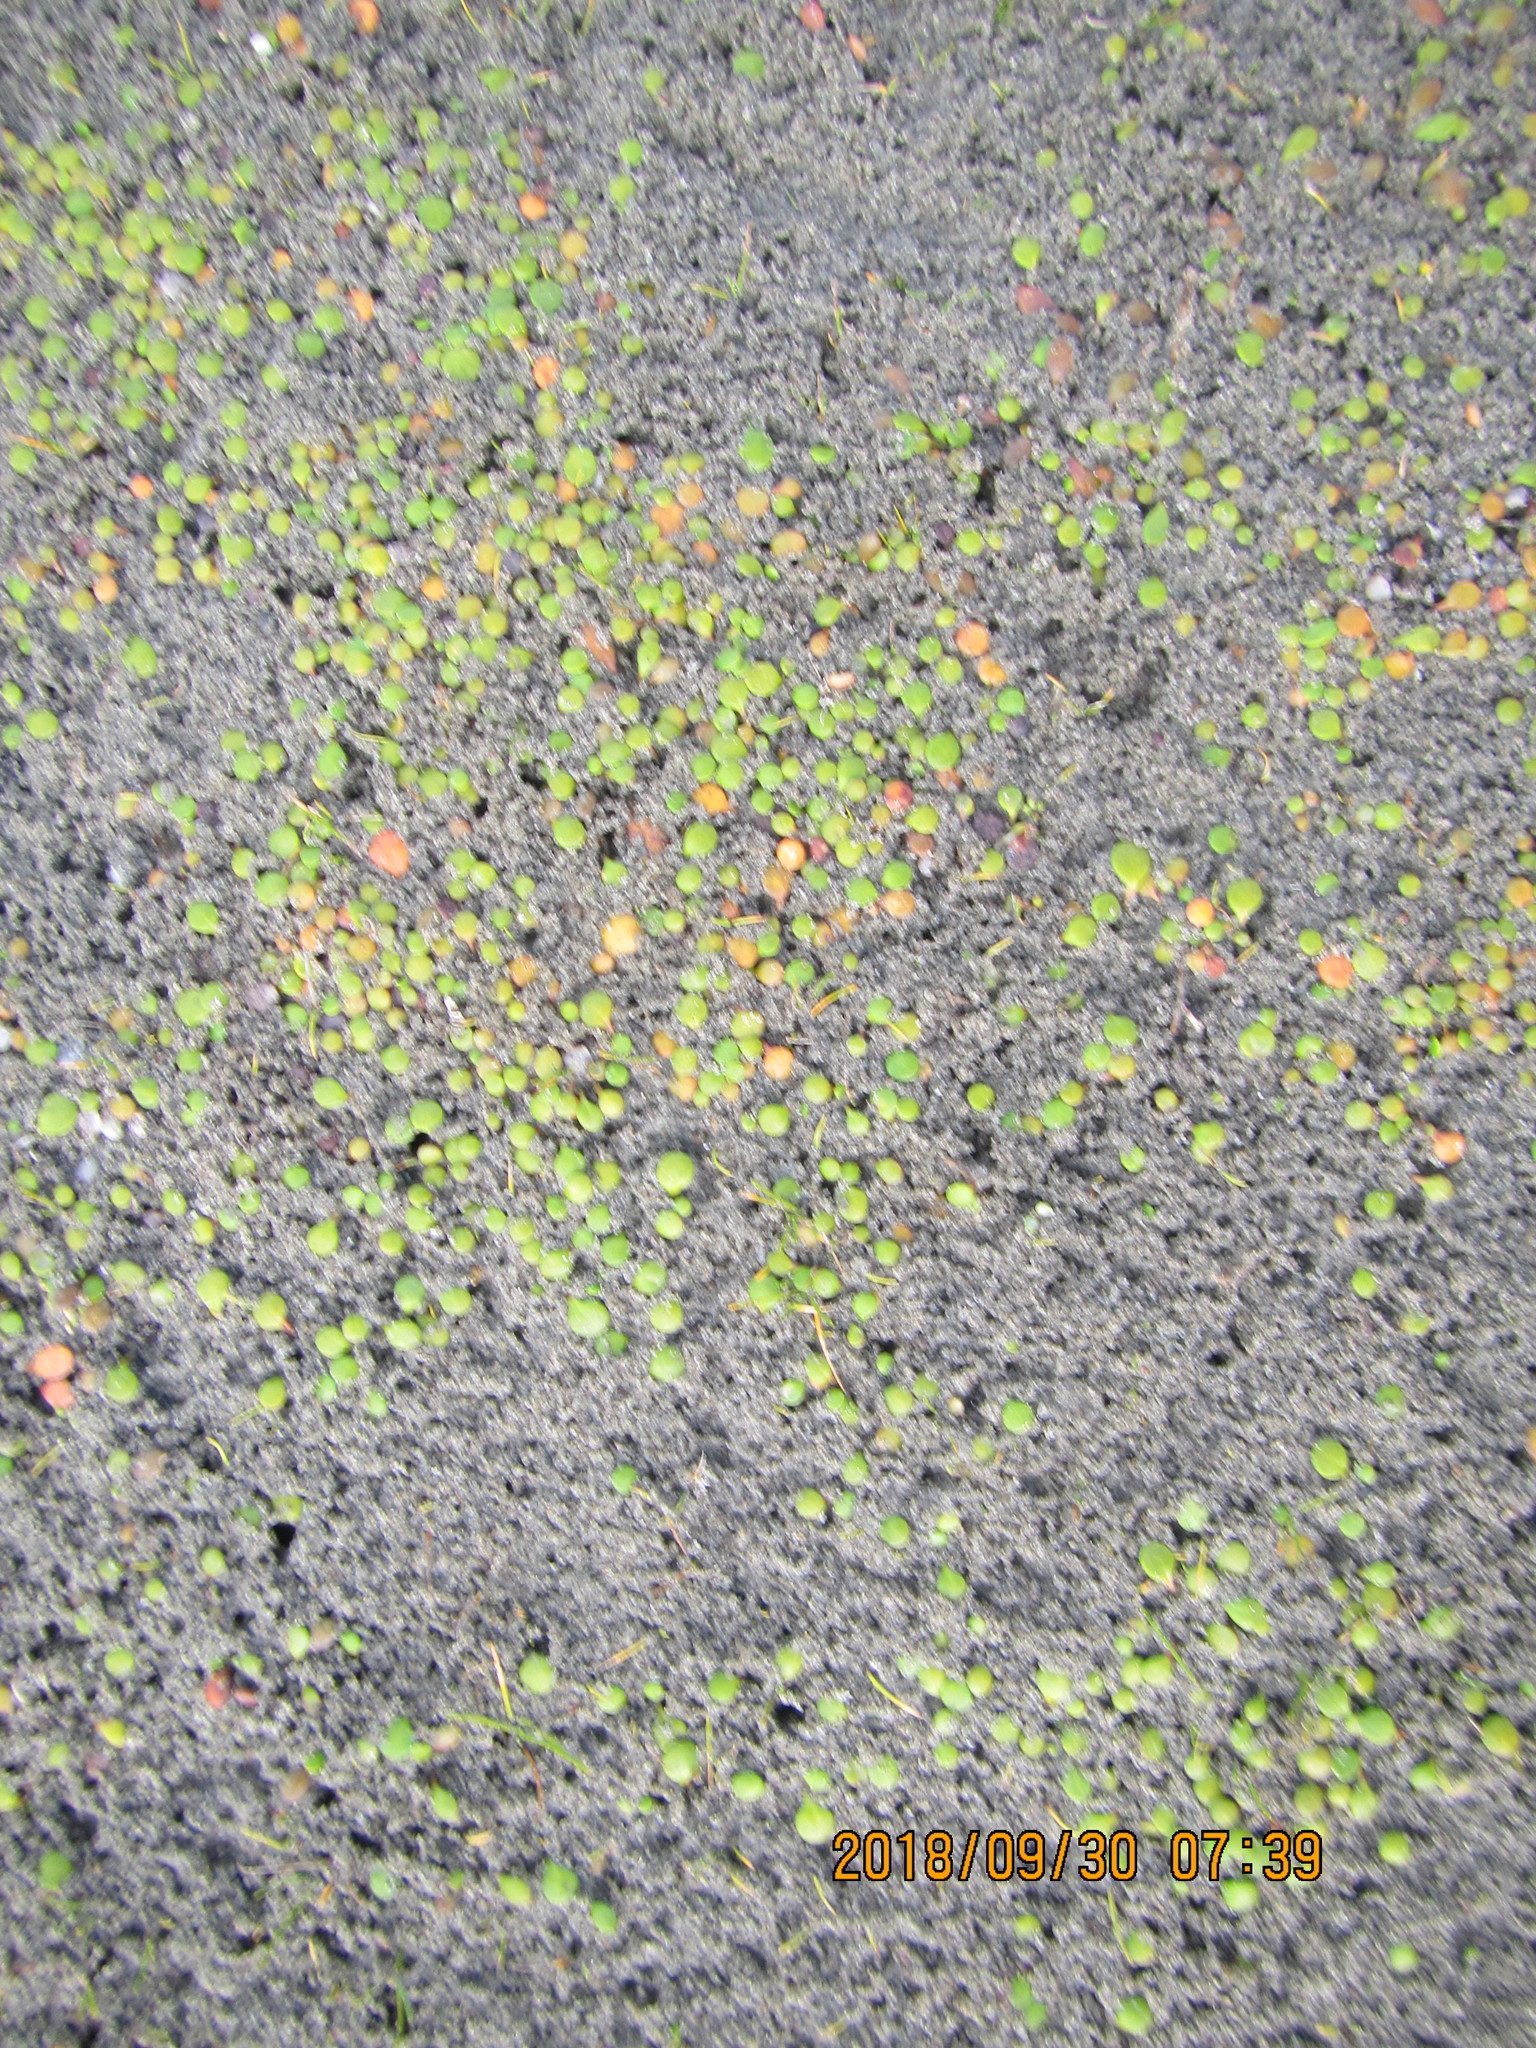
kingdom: Plantae
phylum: Tracheophyta
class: Magnoliopsida
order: Asterales
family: Goodeniaceae
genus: Goodenia
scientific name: Goodenia heenanii
